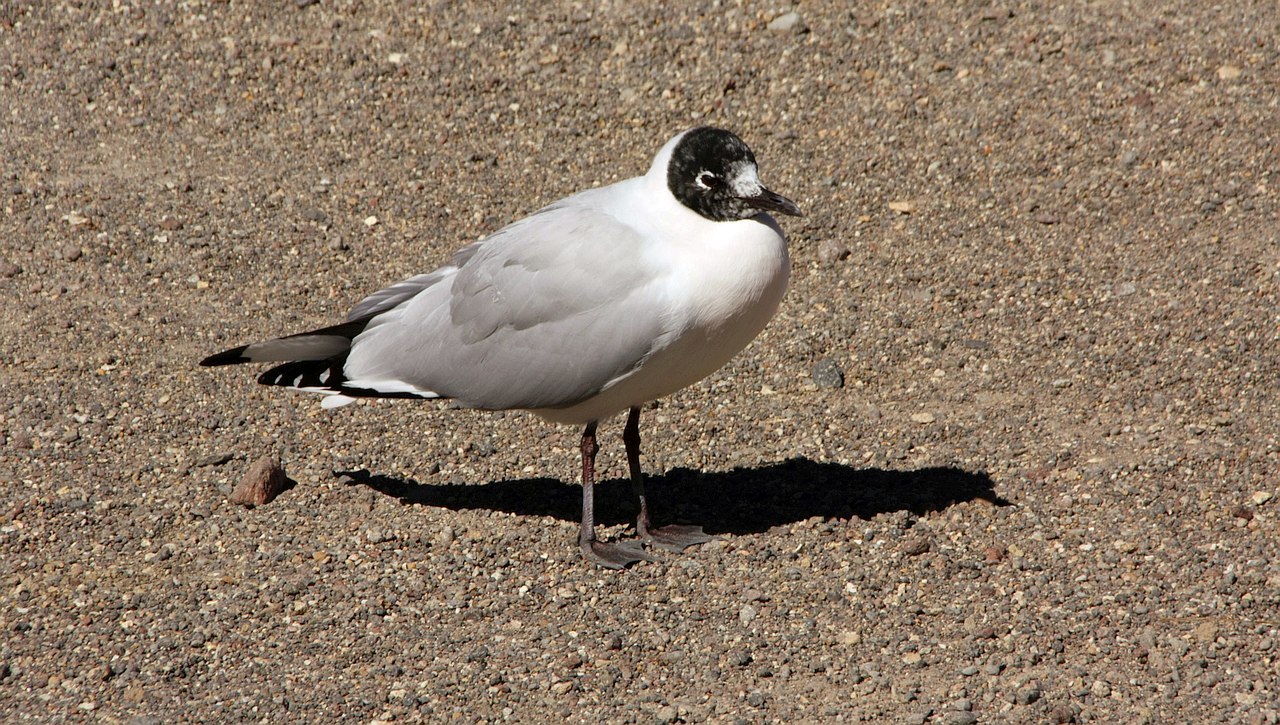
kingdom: Animalia
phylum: Chordata
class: Aves
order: Charadriiformes
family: Laridae
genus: Chroicocephalus
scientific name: Chroicocephalus serranus
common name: Andean gull
